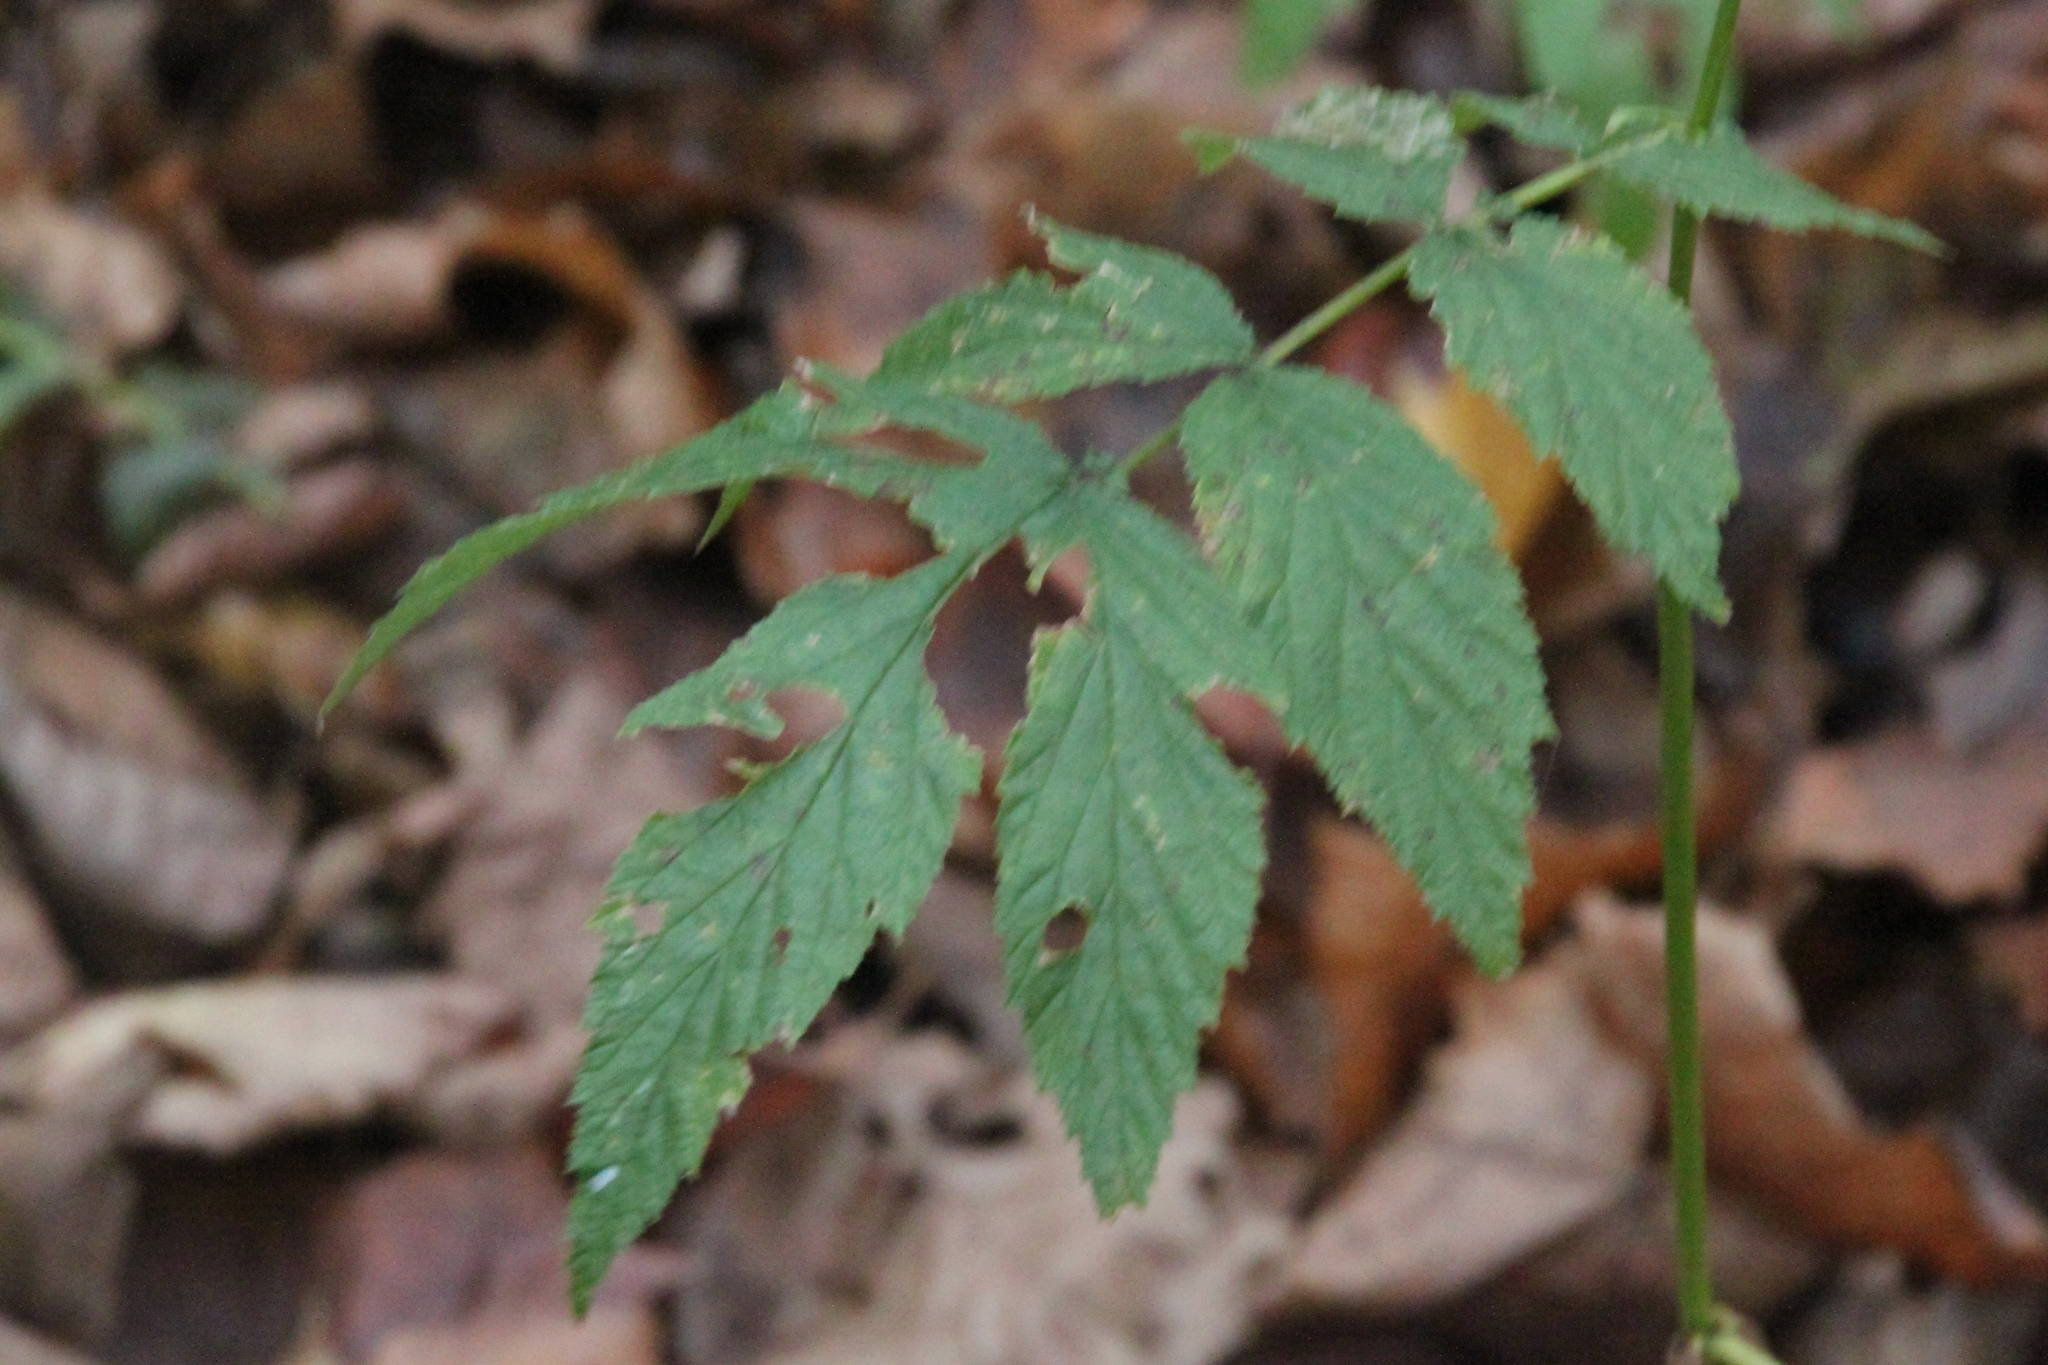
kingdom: Plantae
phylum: Tracheophyta
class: Magnoliopsida
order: Rosales
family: Rosaceae
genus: Filipendula
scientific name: Filipendula ulmaria
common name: Meadowsweet
